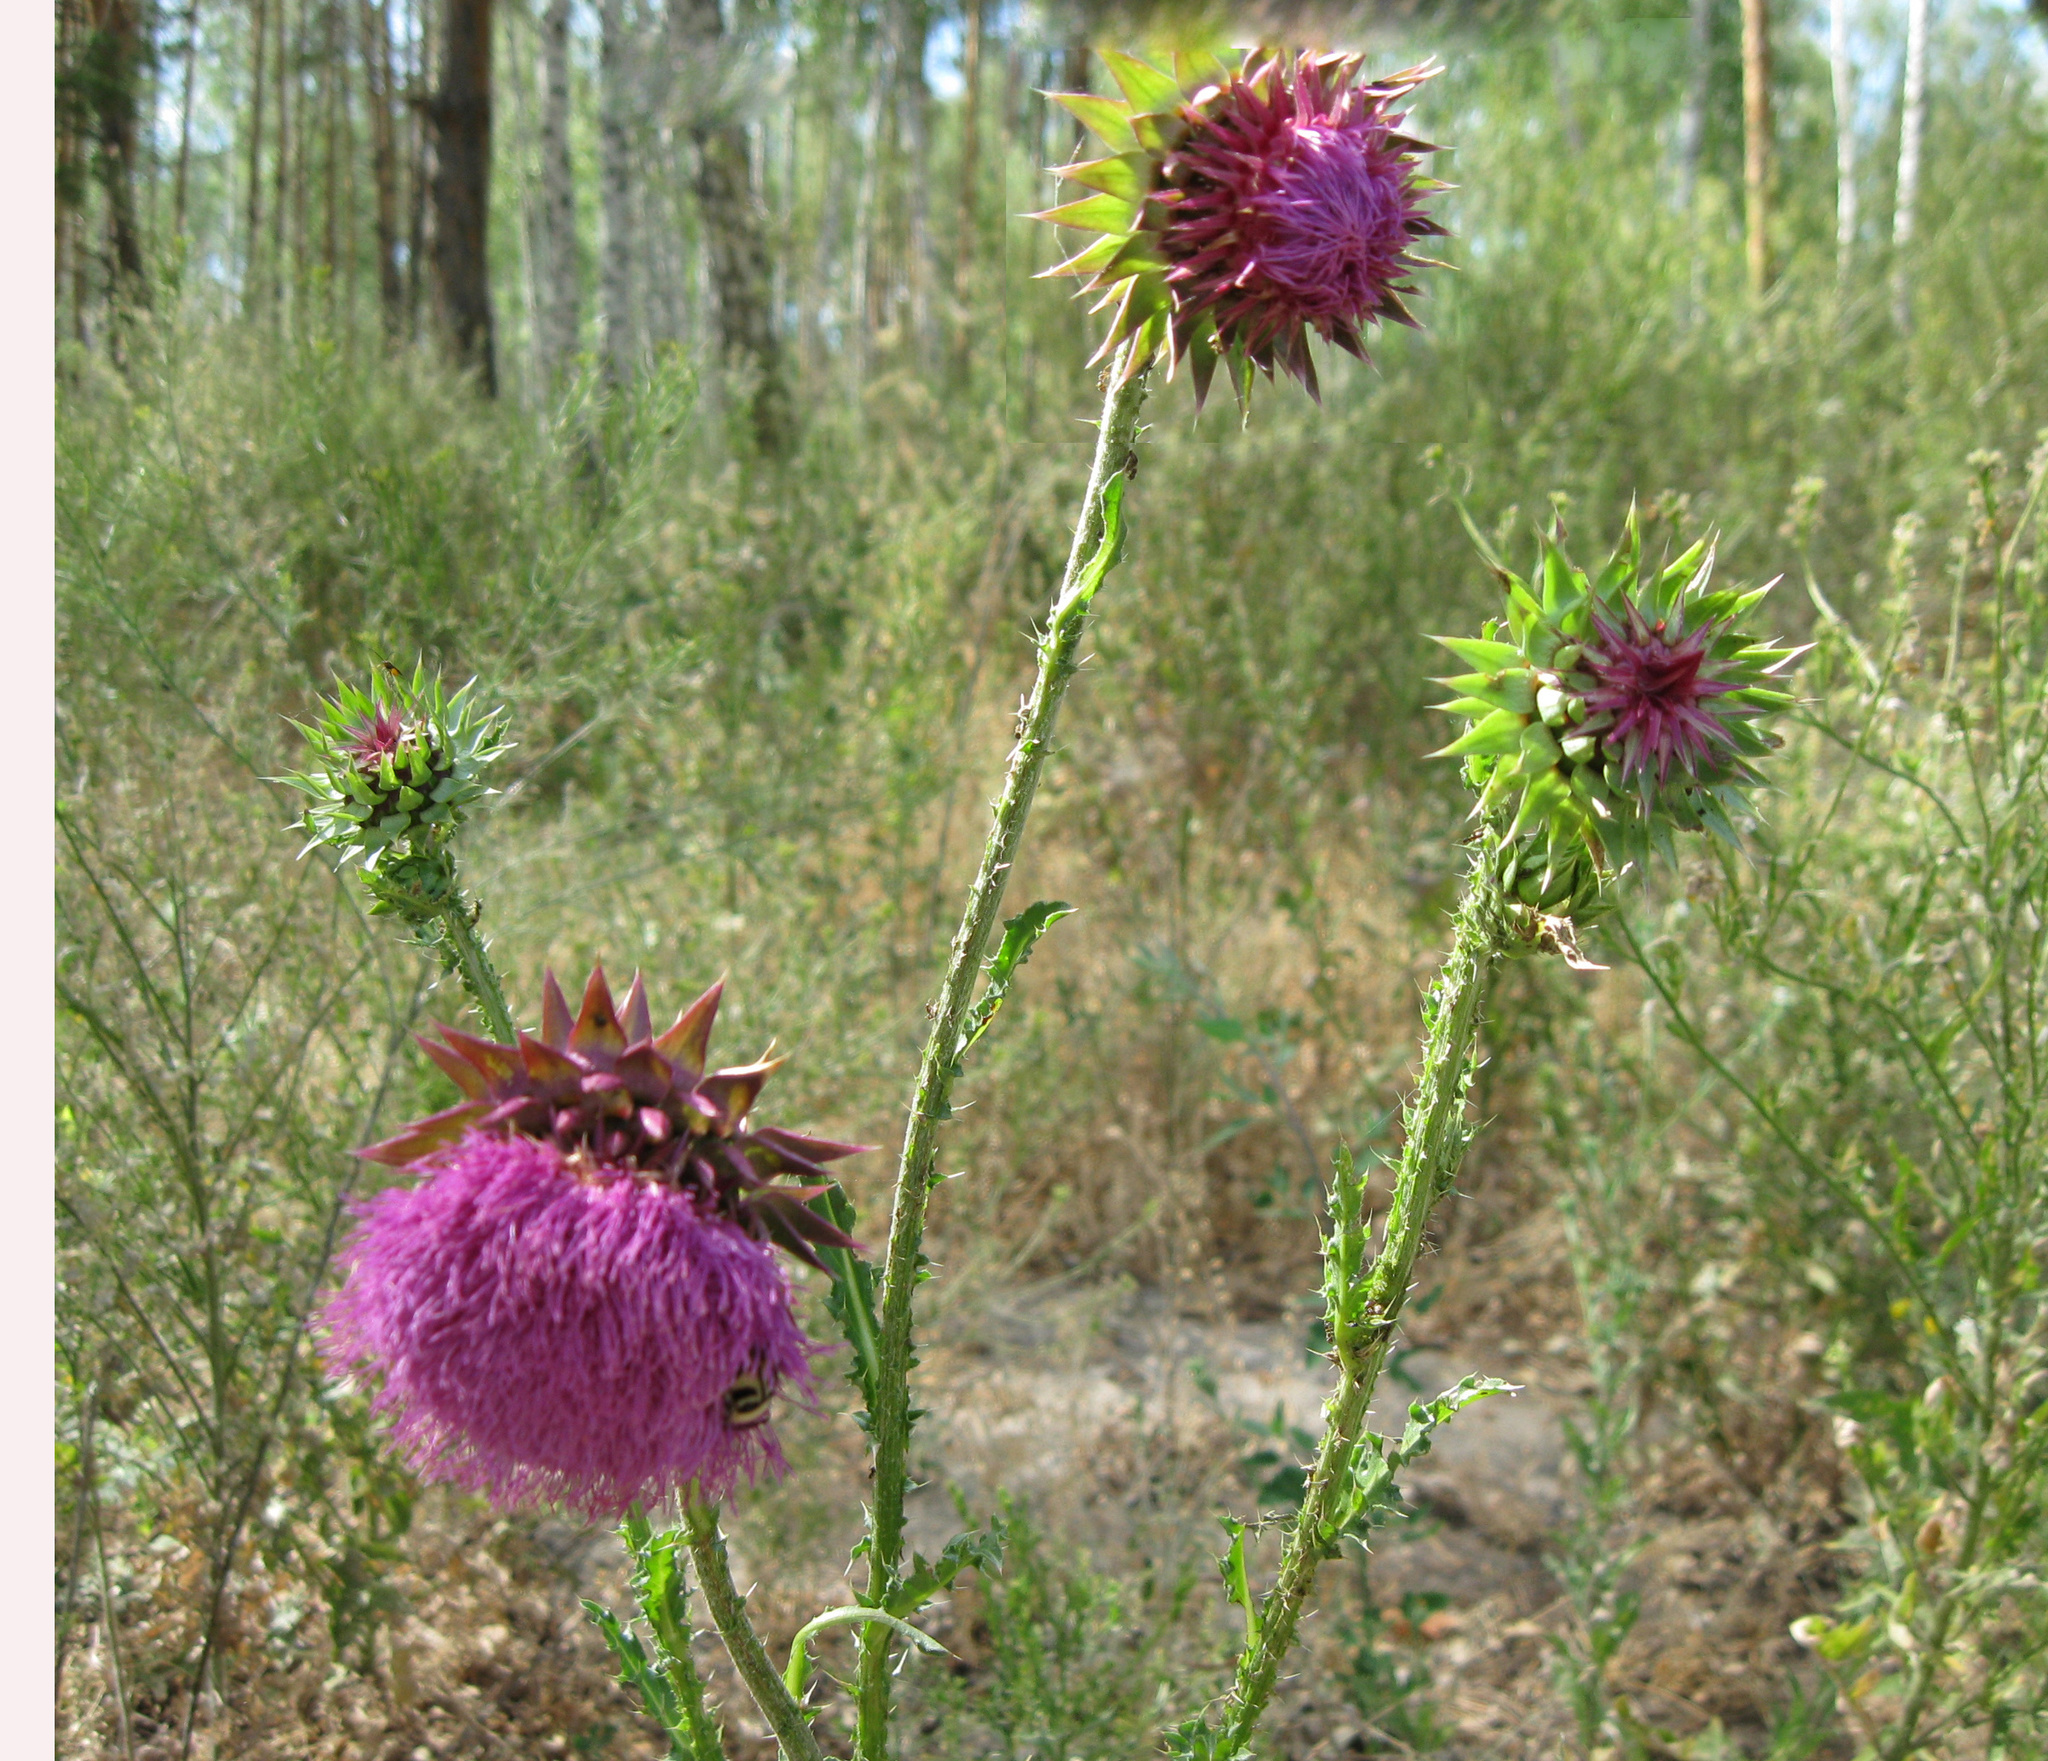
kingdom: Plantae
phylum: Tracheophyta
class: Magnoliopsida
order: Asterales
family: Asteraceae
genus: Carduus
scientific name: Carduus nutans
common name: Musk thistle
